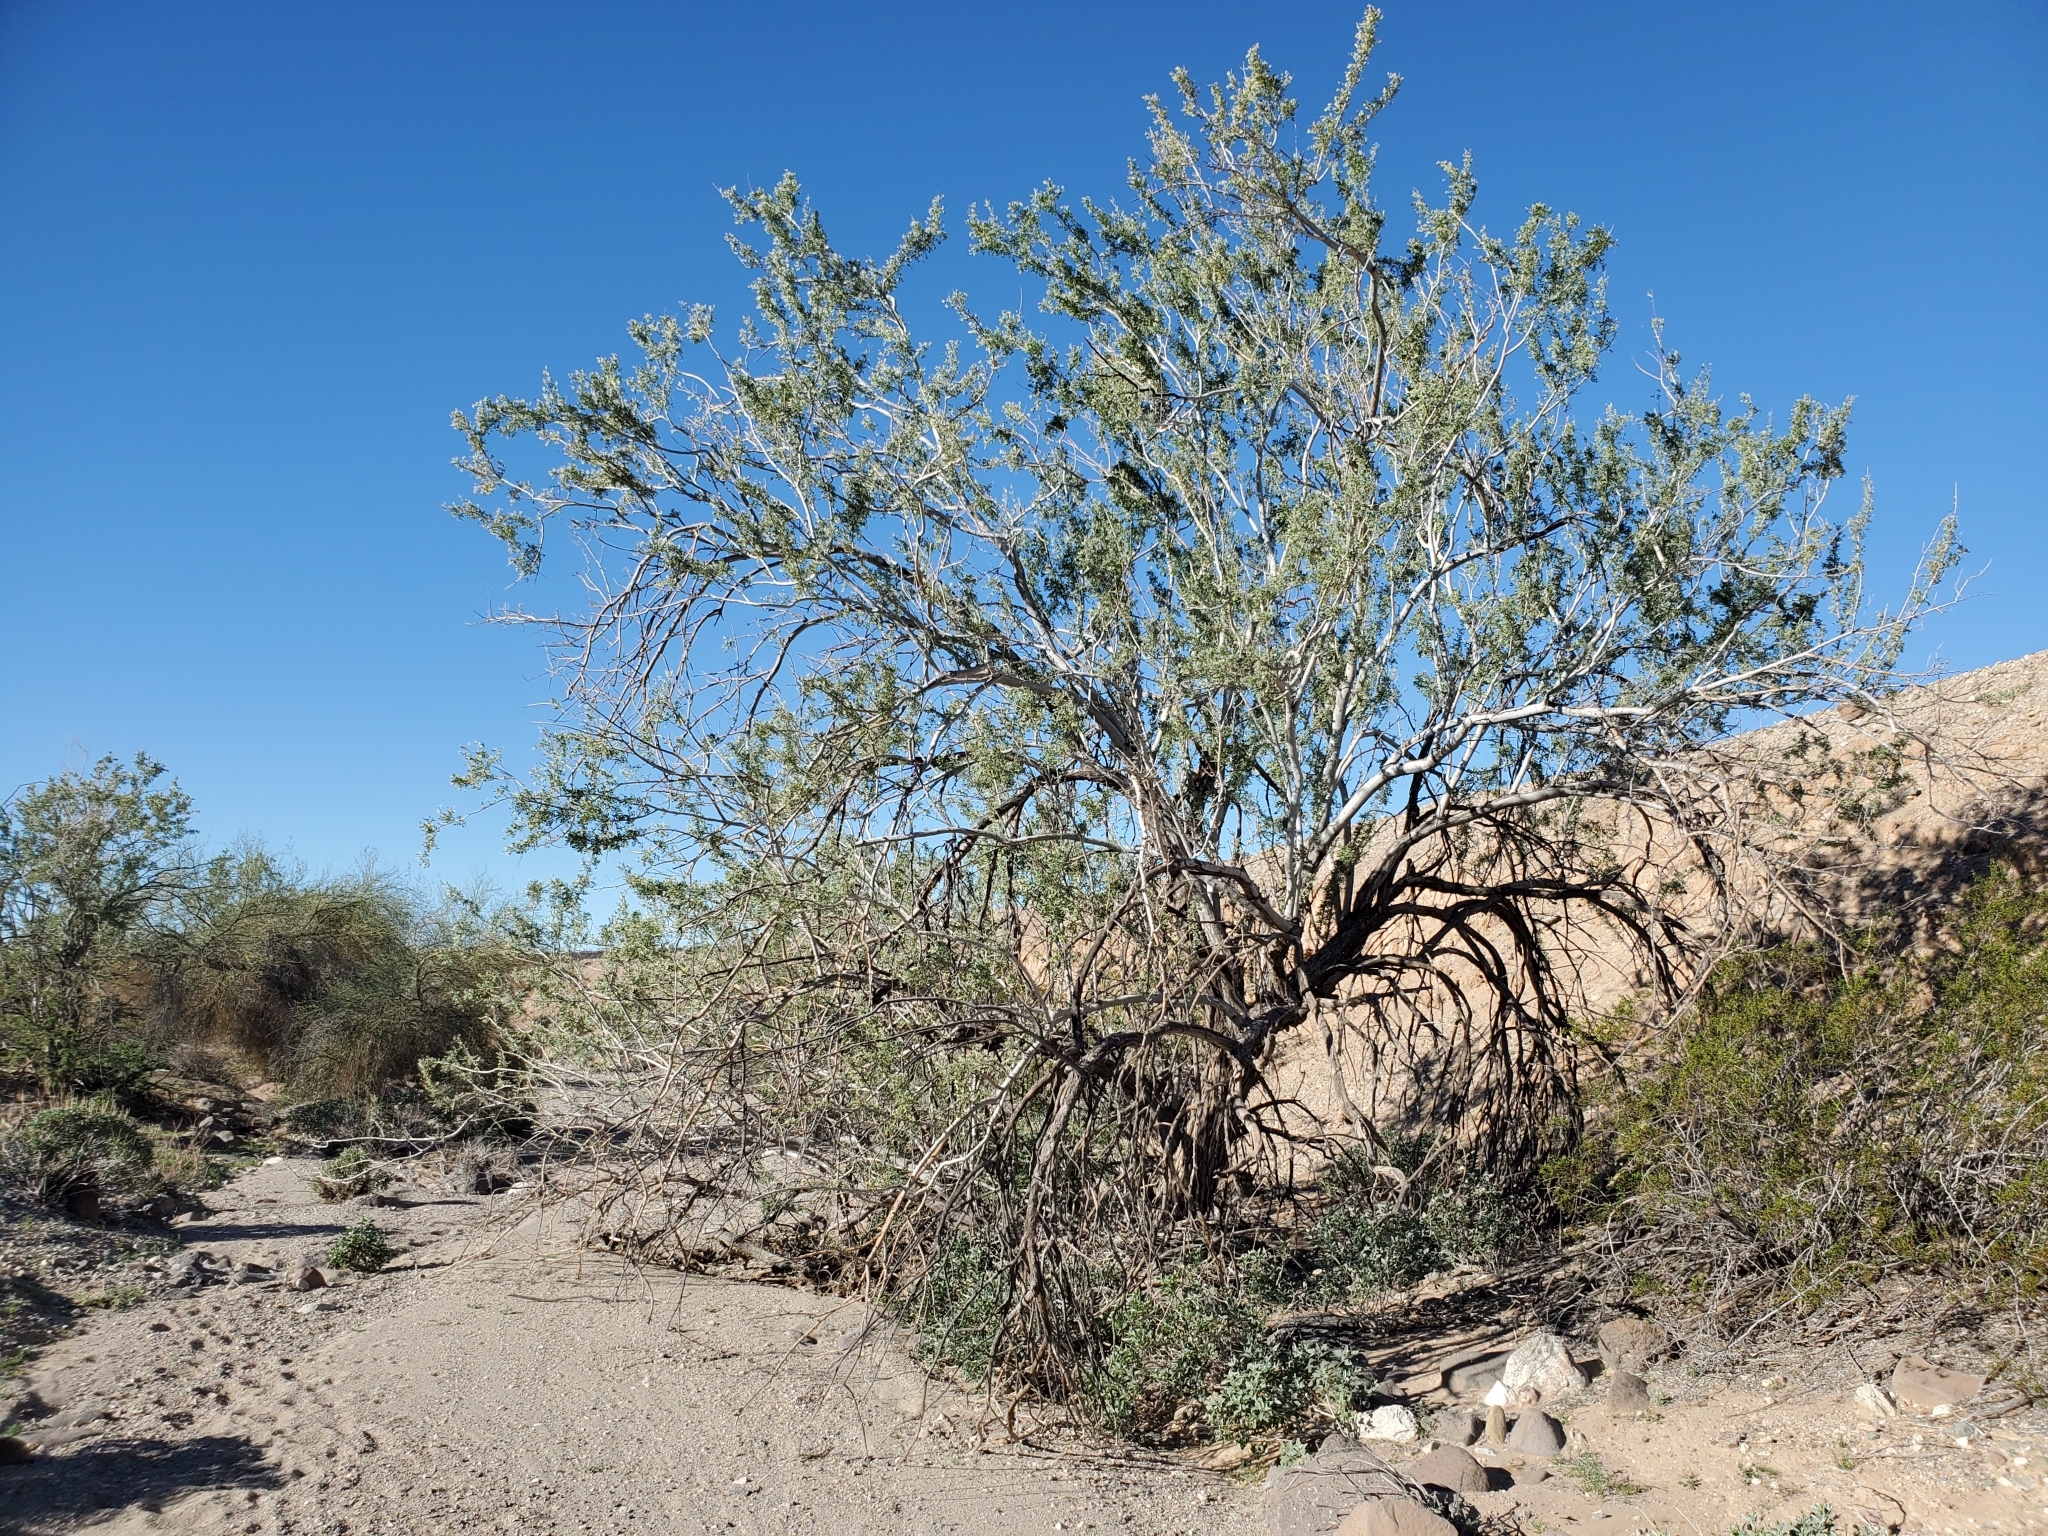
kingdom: Plantae
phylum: Tracheophyta
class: Magnoliopsida
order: Fabales
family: Fabaceae
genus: Olneya
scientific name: Olneya tesota
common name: Desert ironwood
